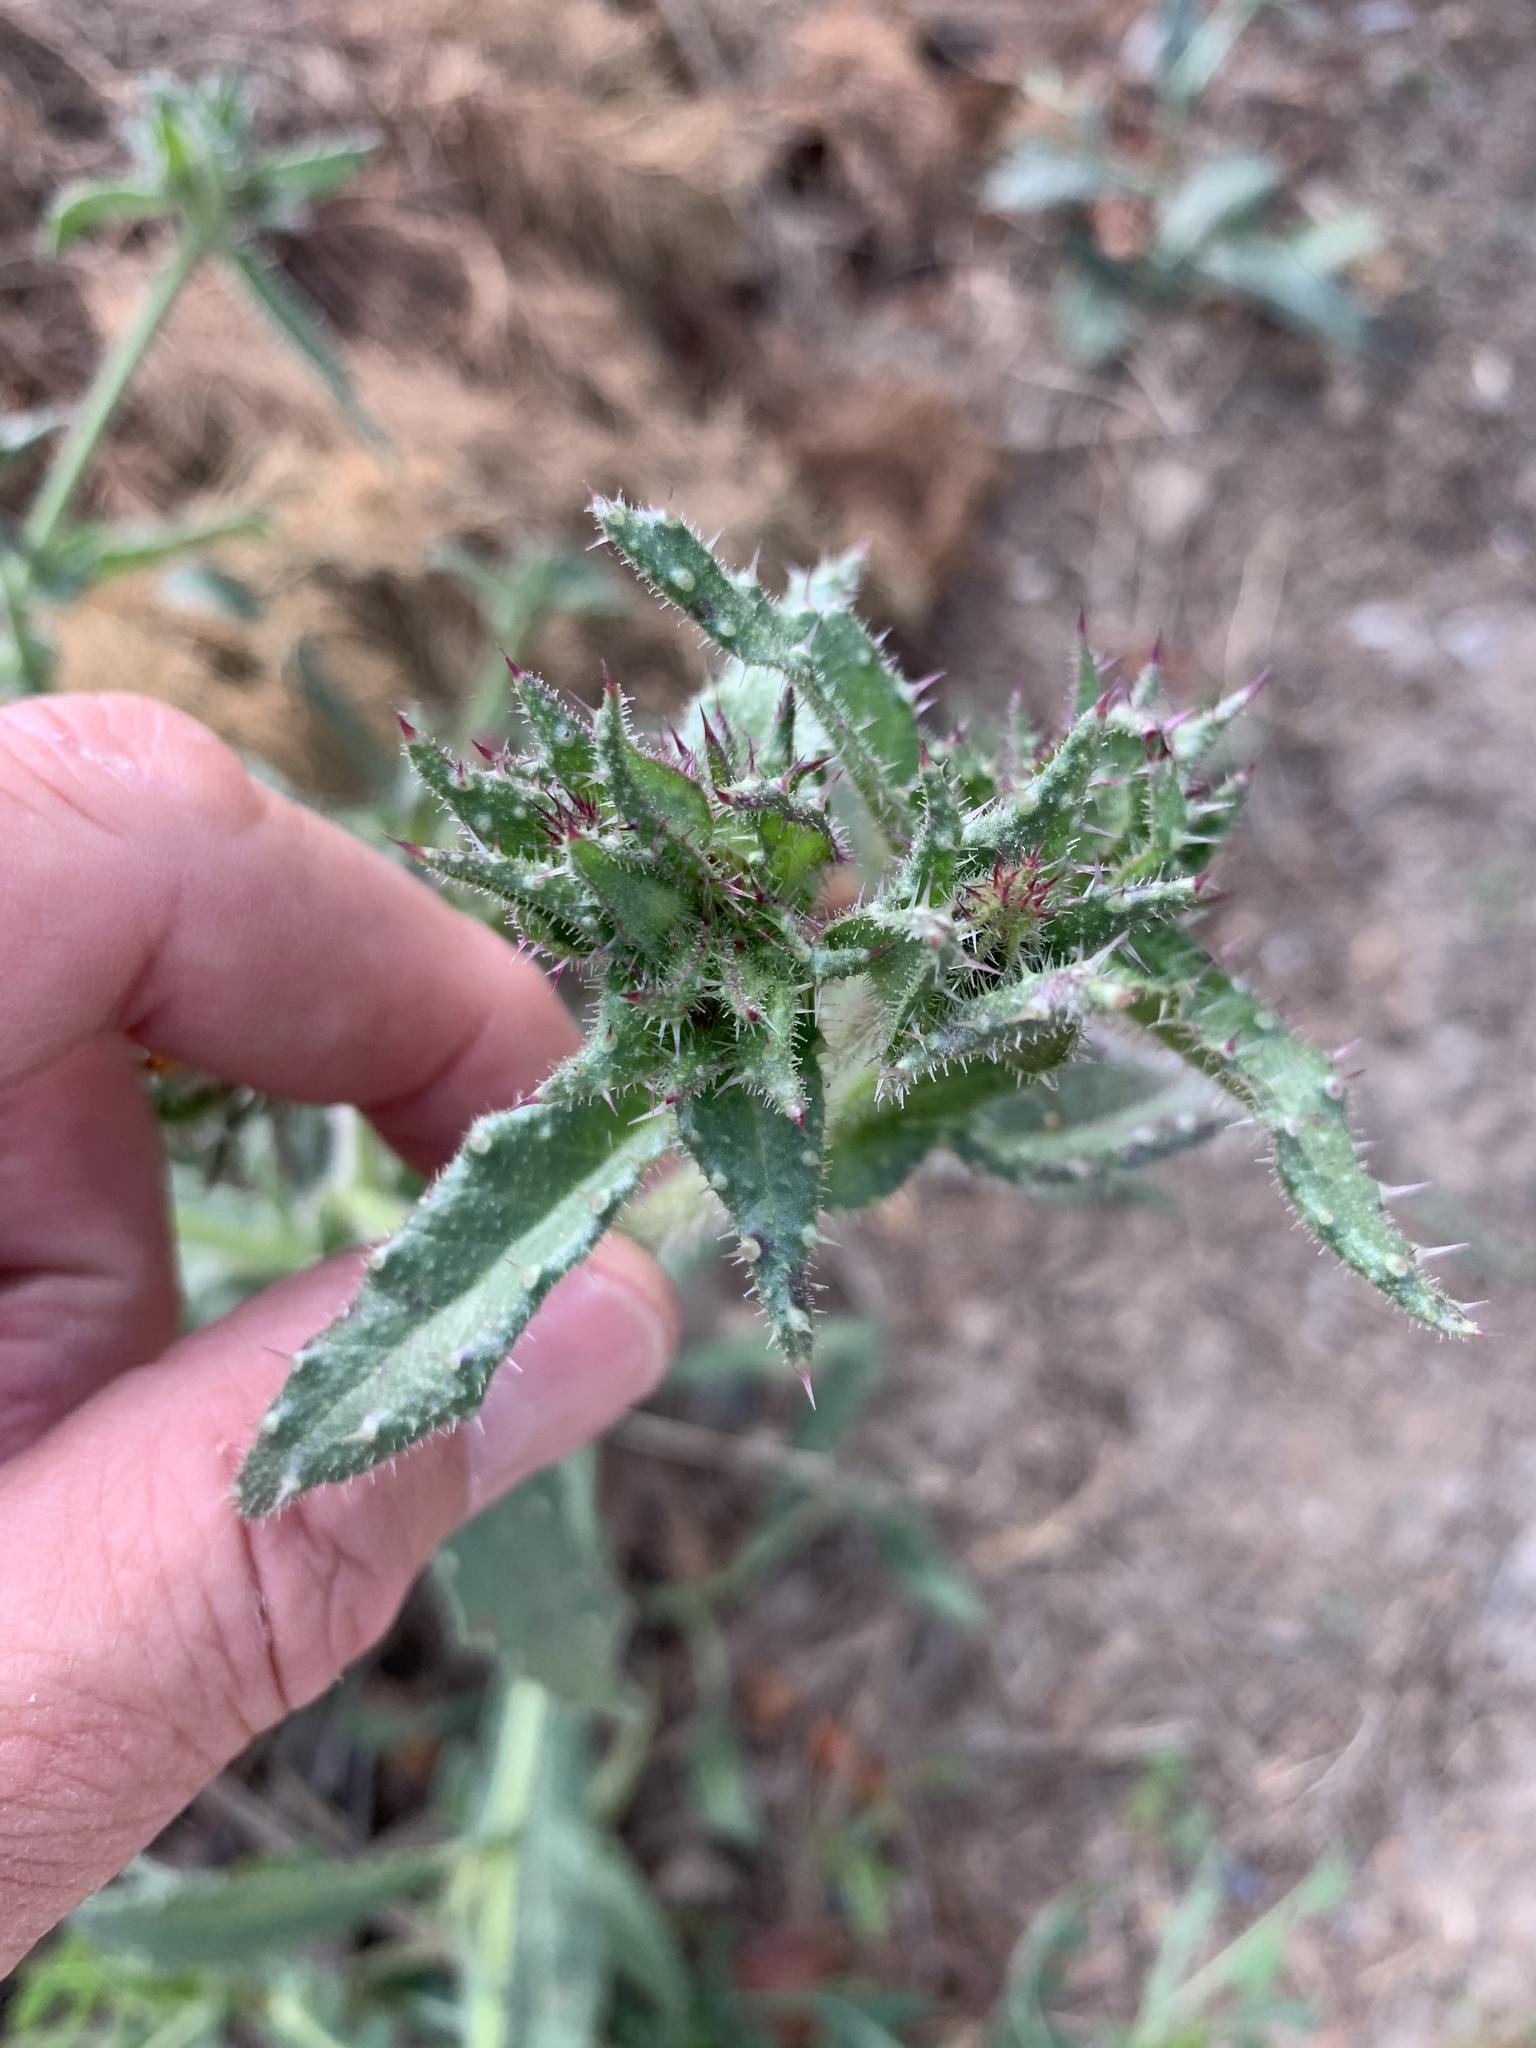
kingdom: Plantae
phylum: Tracheophyta
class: Magnoliopsida
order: Asterales
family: Asteraceae
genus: Helminthotheca
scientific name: Helminthotheca echioides
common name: Ox-tongue
